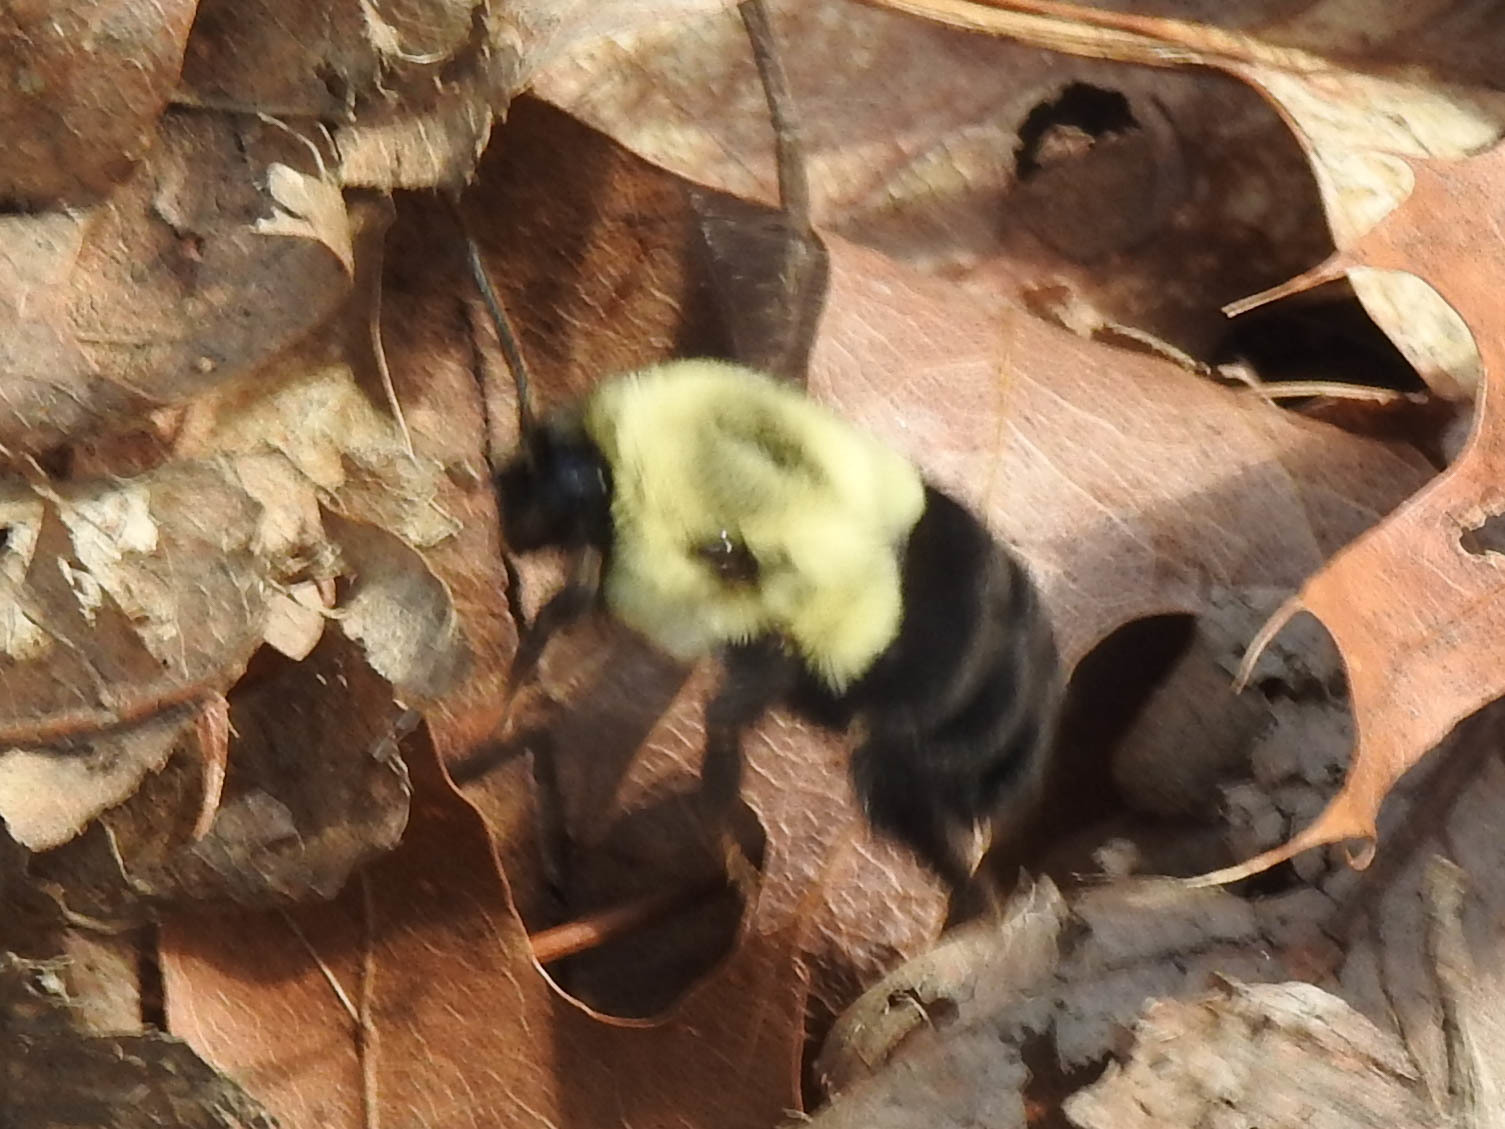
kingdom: Animalia
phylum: Arthropoda
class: Insecta
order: Hymenoptera
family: Apidae
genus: Bombus
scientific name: Bombus impatiens
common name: Common eastern bumble bee
